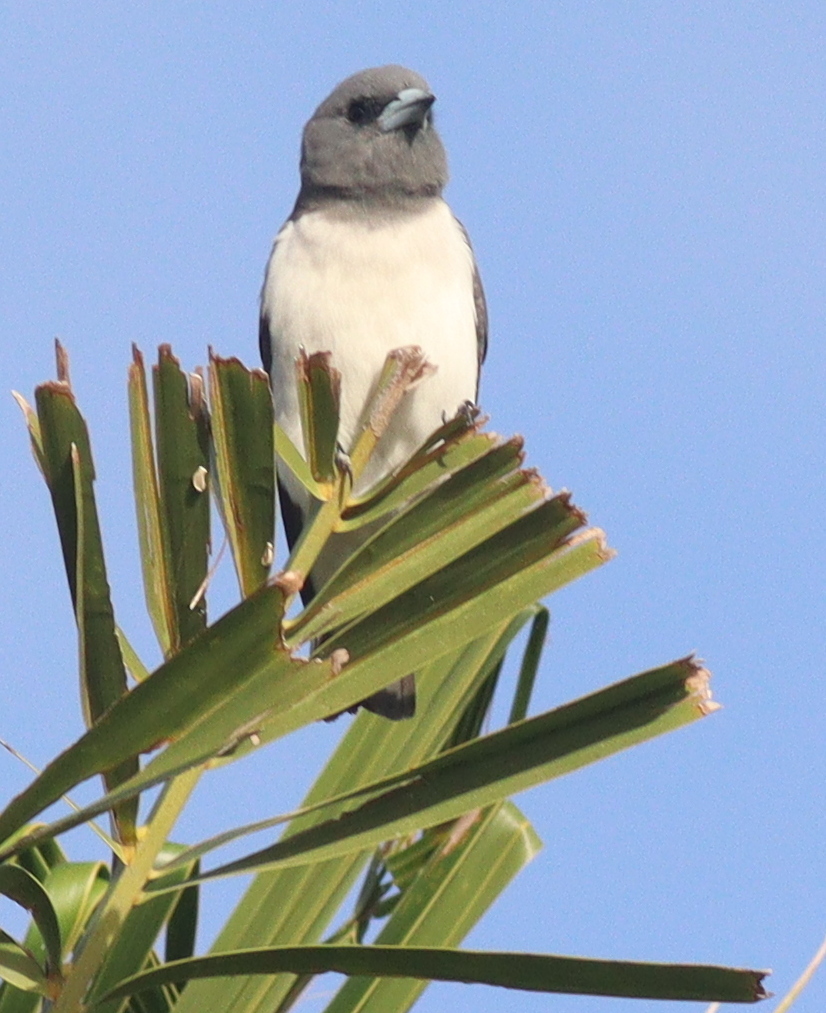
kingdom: Animalia
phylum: Chordata
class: Aves
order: Passeriformes
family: Artamidae
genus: Artamus
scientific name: Artamus leucoryn
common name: White-breasted woodswallow
